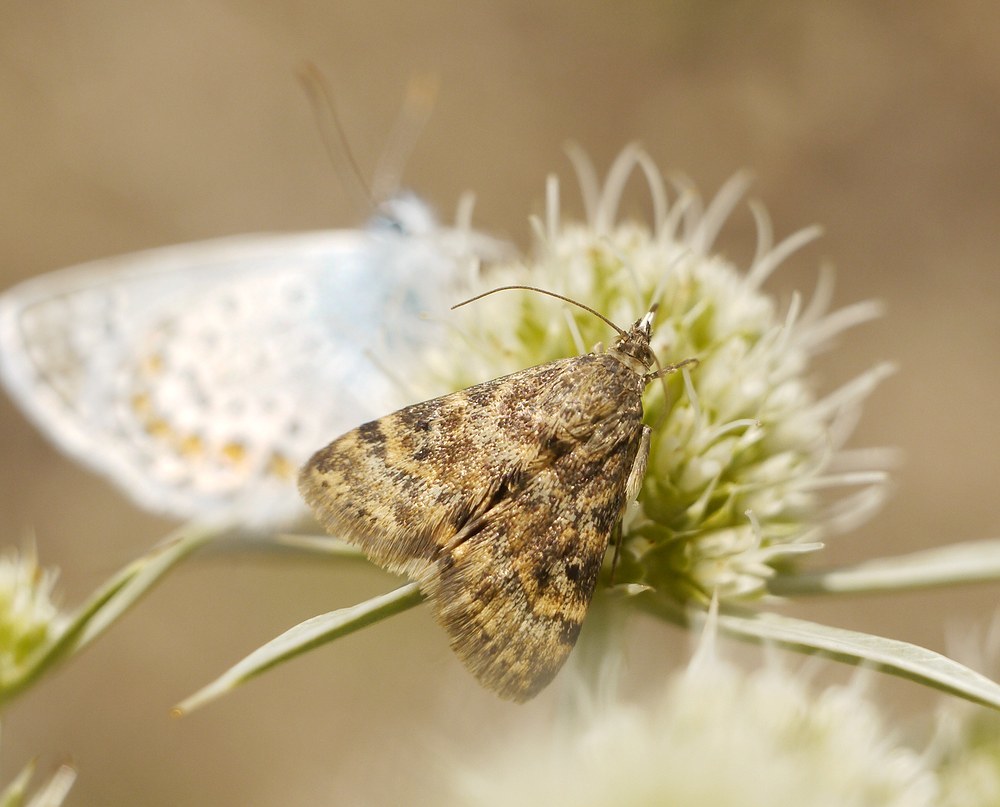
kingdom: Animalia
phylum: Arthropoda
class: Insecta
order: Lepidoptera
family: Crambidae
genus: Noctuelia
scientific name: Noctuelia Aporodes floralis
